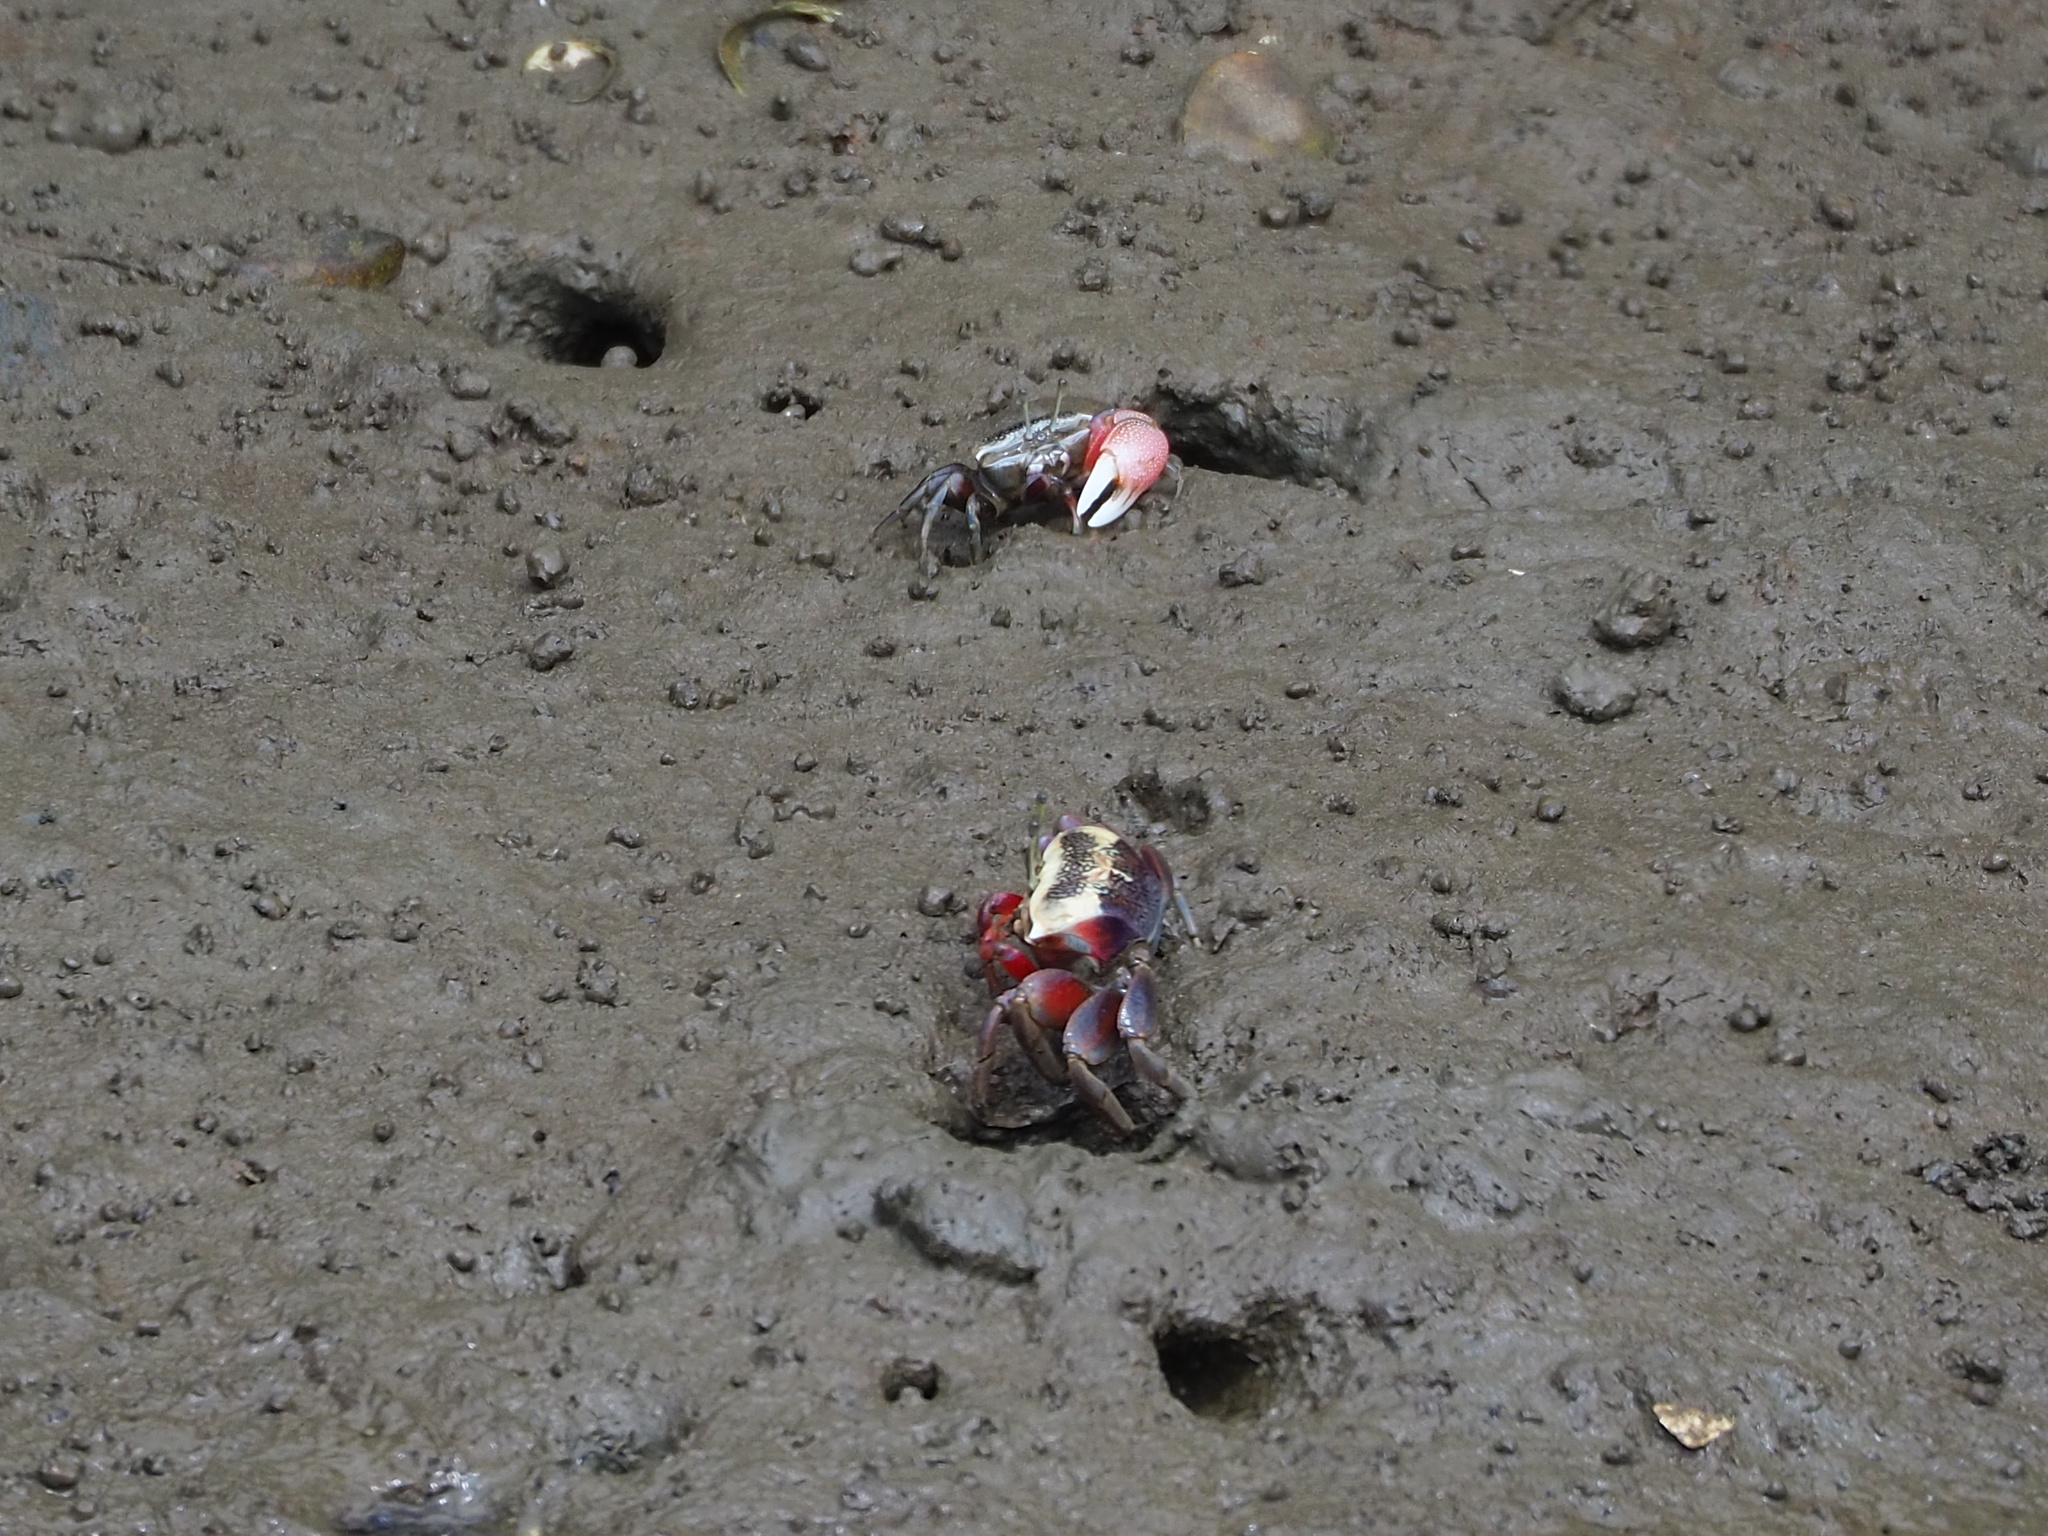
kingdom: Animalia
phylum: Arthropoda
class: Malacostraca
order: Decapoda
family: Ocypodidae
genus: Tubuca
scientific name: Tubuca arcuata
